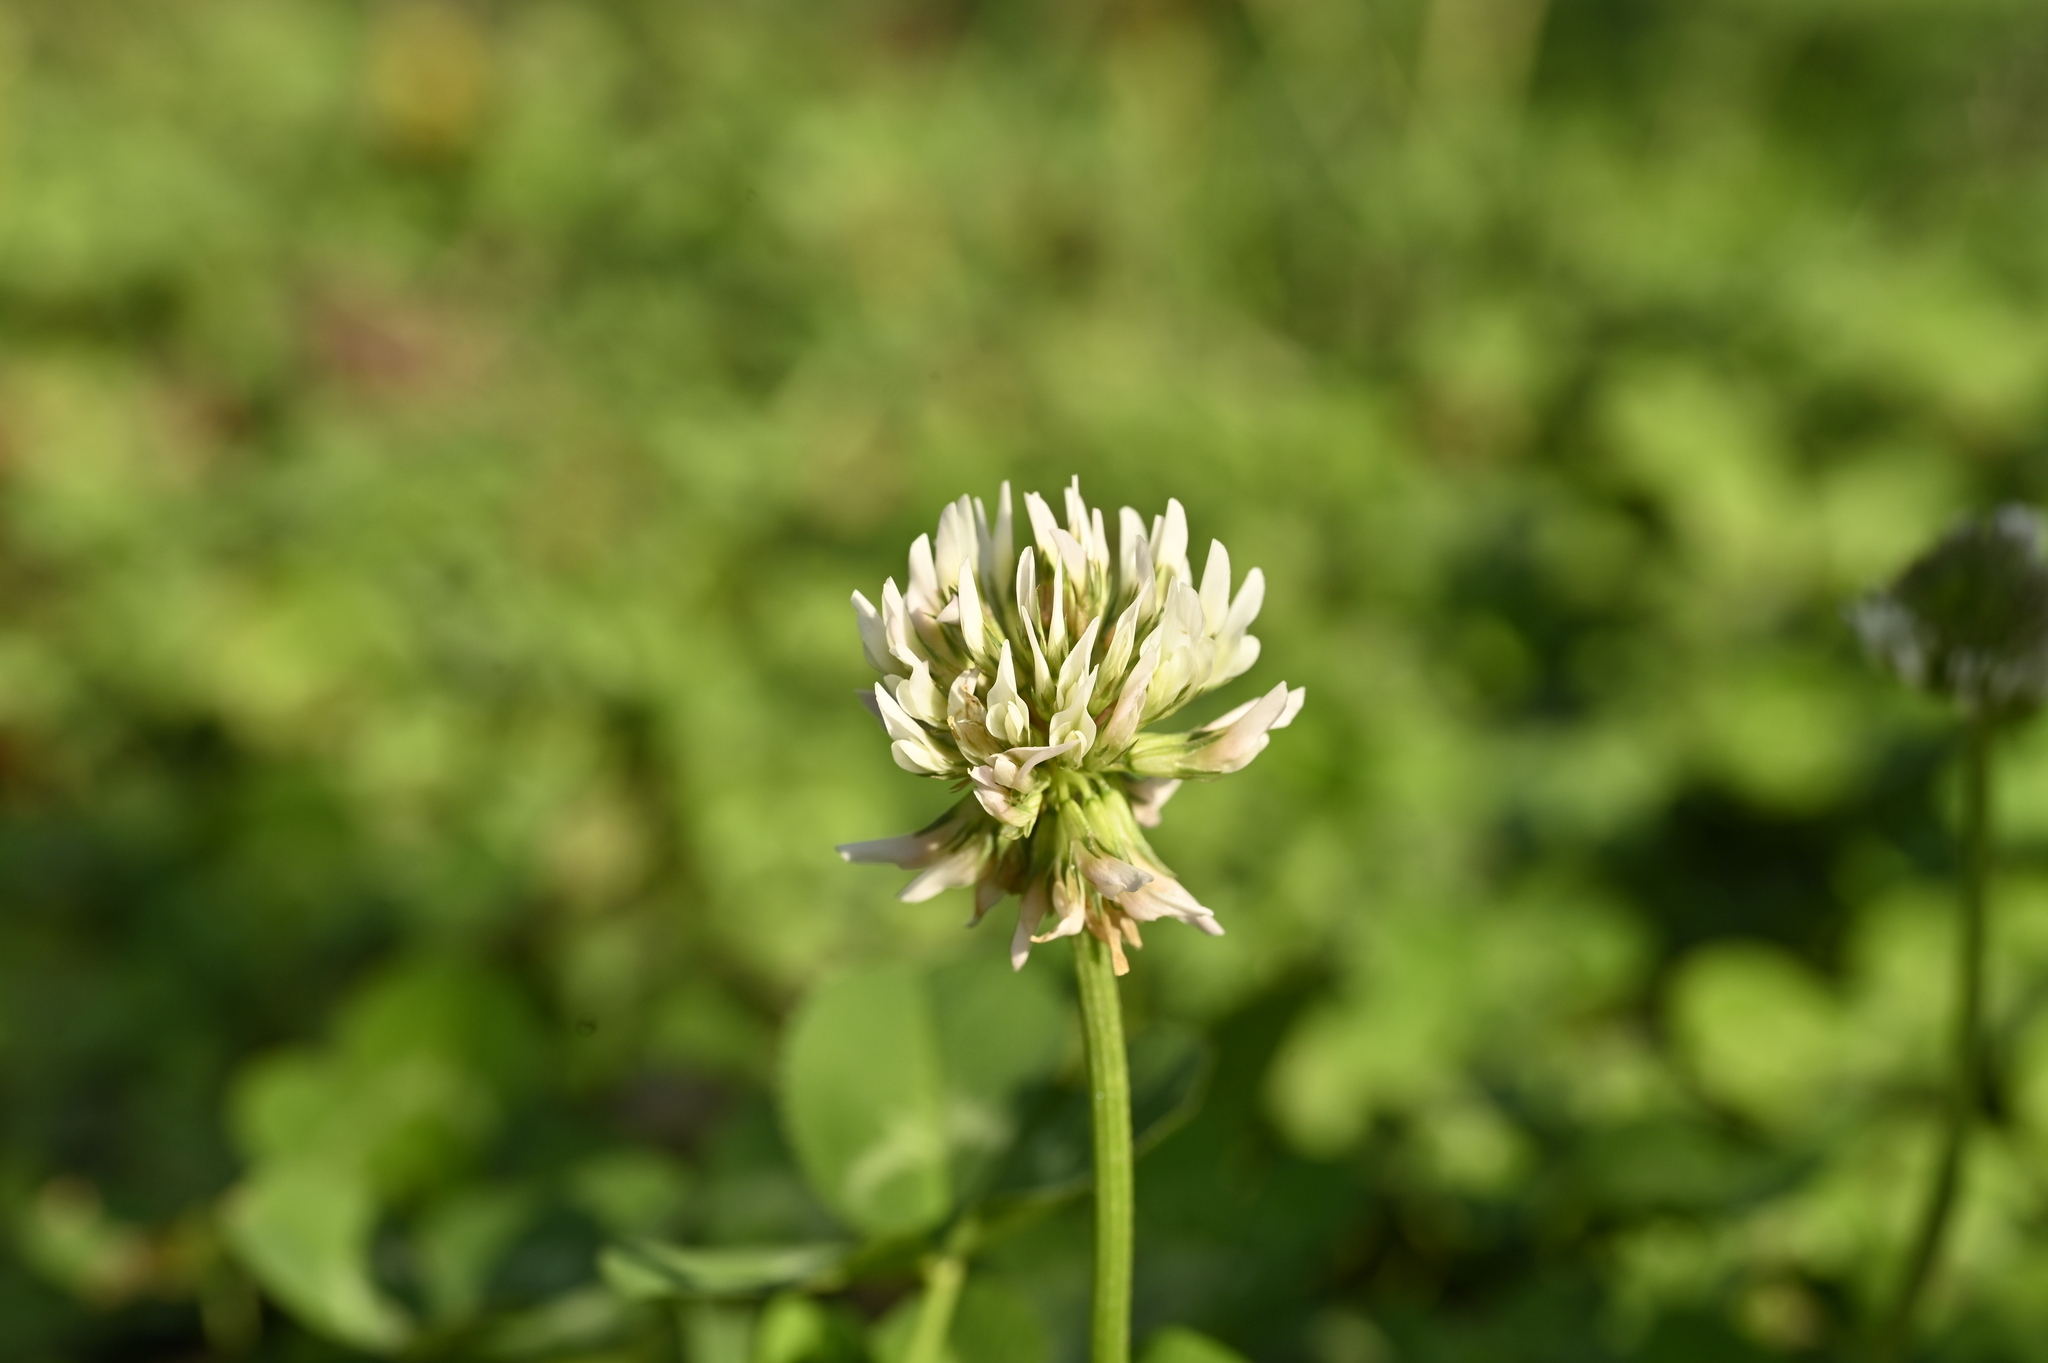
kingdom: Plantae
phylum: Tracheophyta
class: Magnoliopsida
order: Fabales
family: Fabaceae
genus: Trifolium
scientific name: Trifolium repens
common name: White clover
